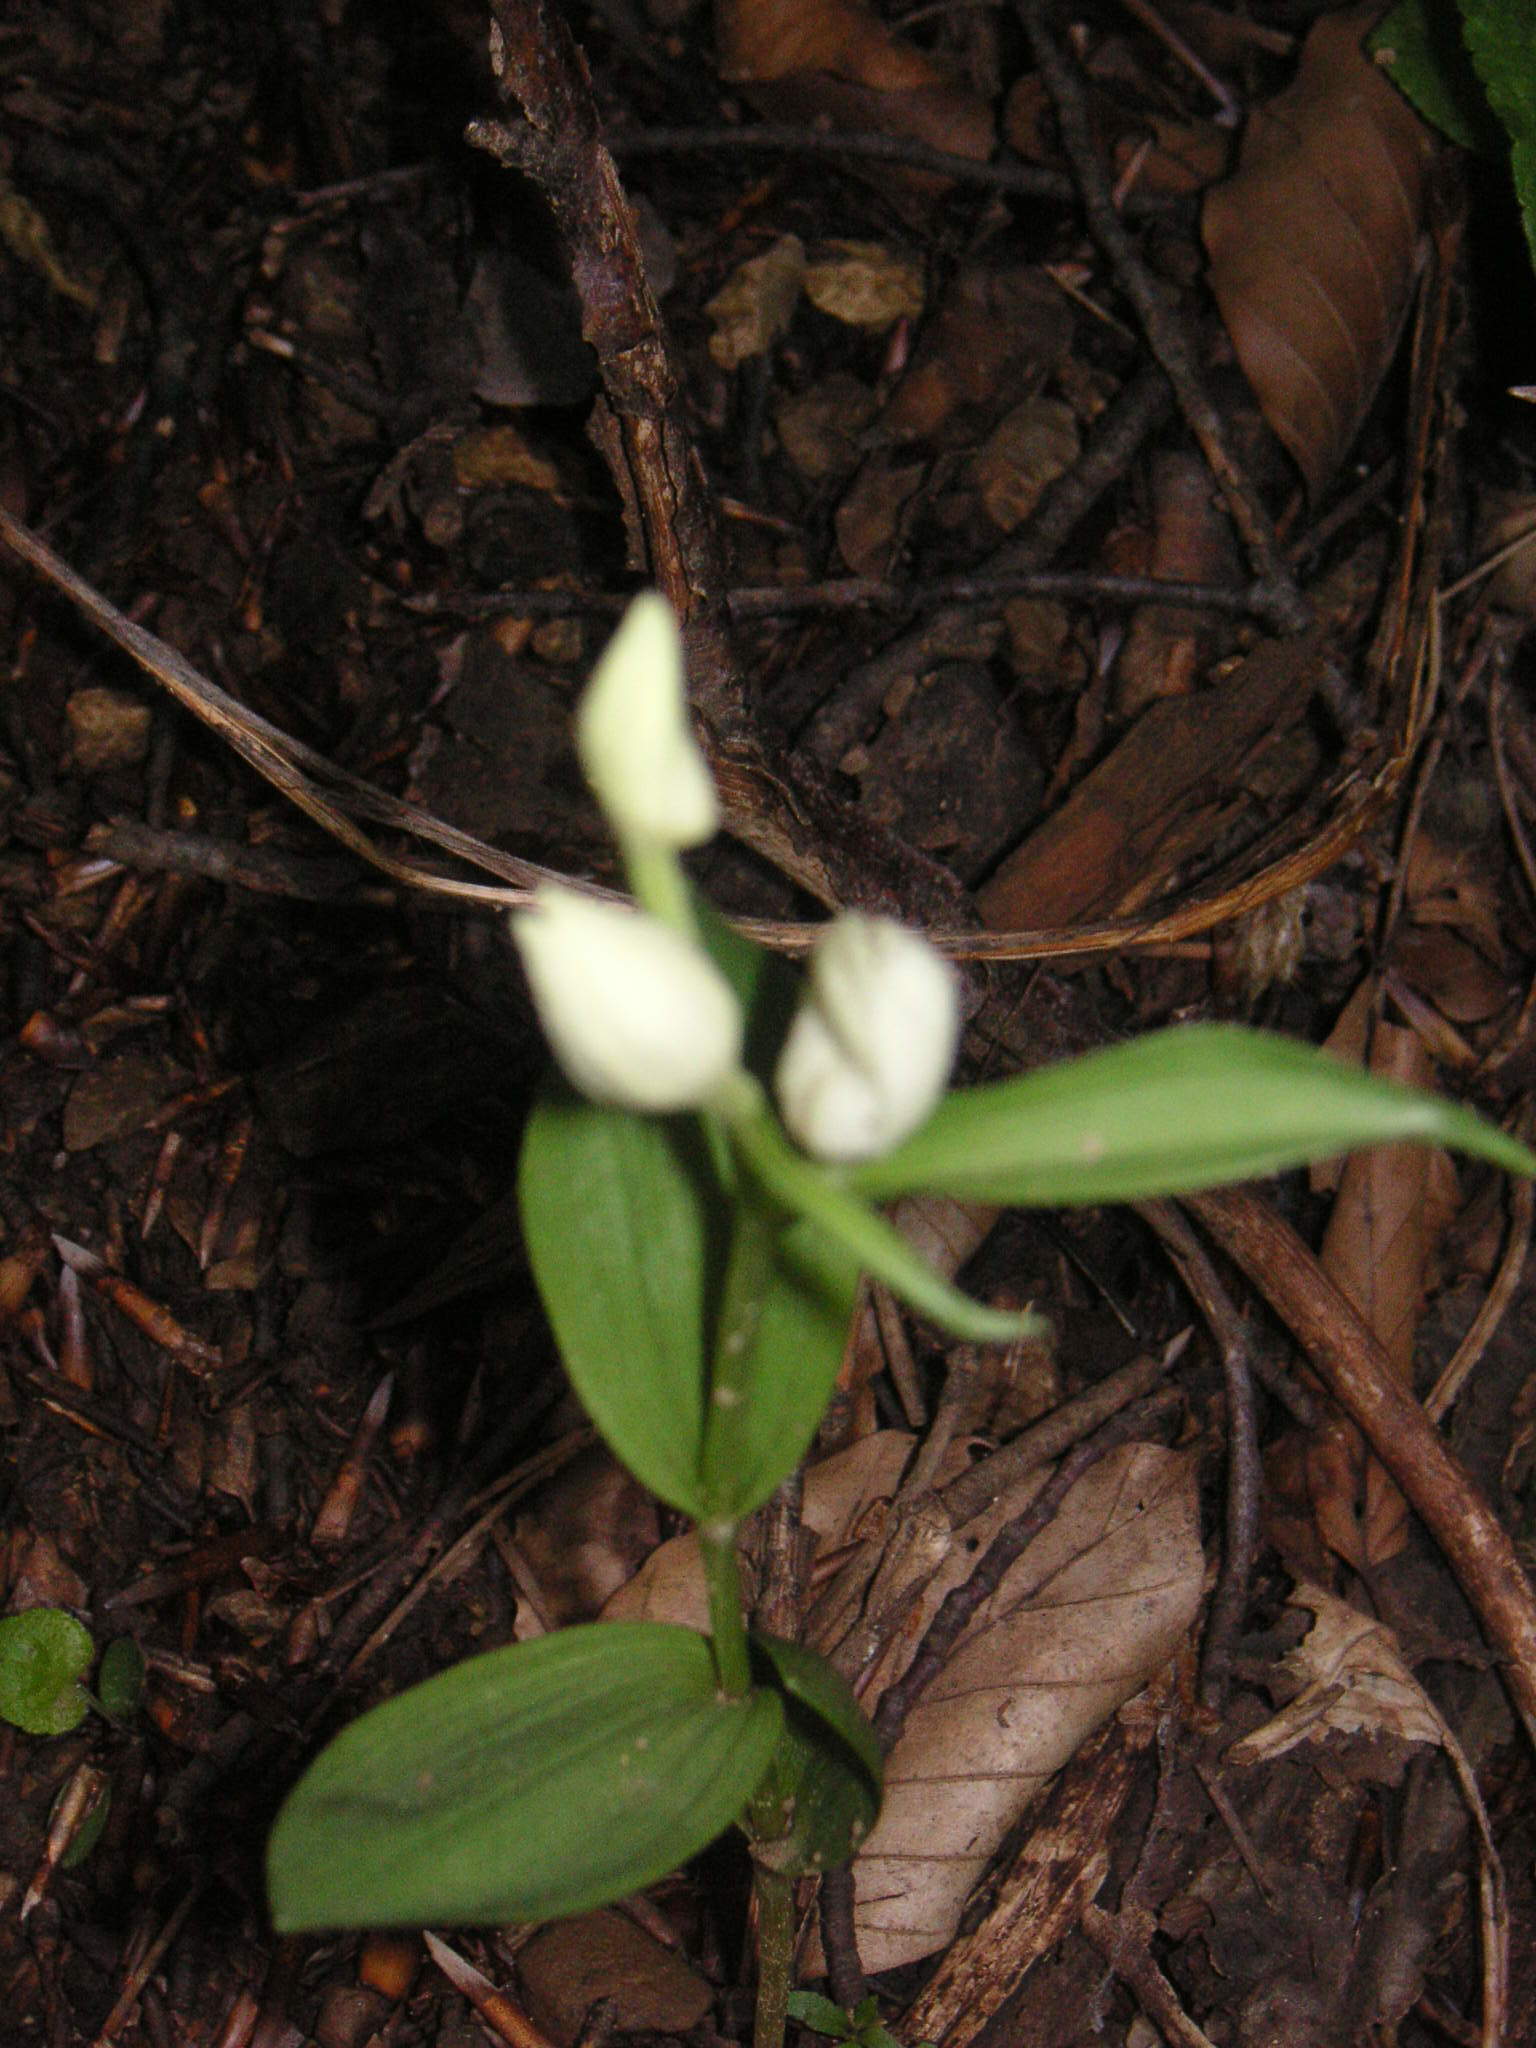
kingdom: Plantae
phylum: Tracheophyta
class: Liliopsida
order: Asparagales
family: Orchidaceae
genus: Cephalanthera
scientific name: Cephalanthera damasonium
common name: White helleborine
